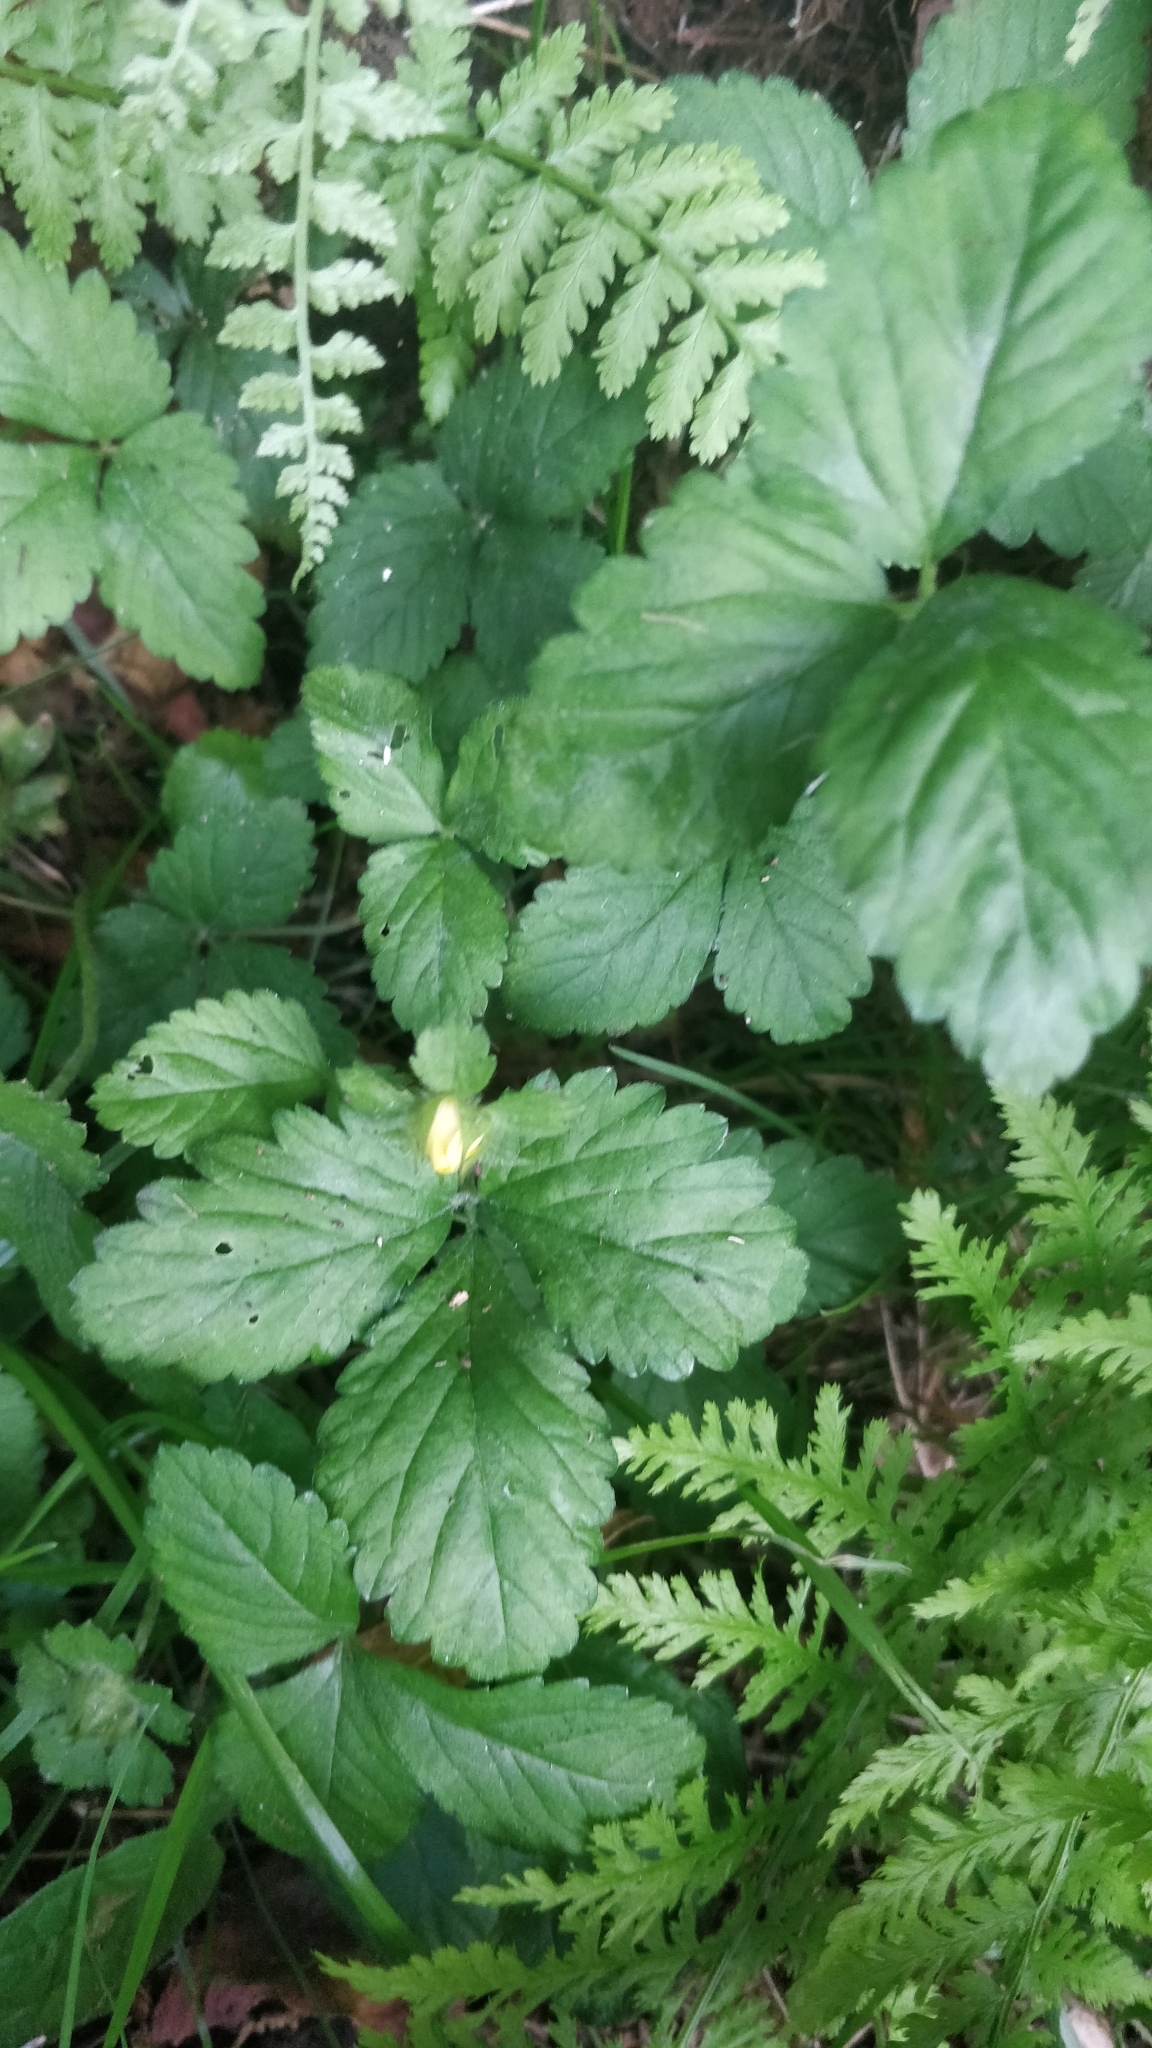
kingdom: Plantae
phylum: Tracheophyta
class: Magnoliopsida
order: Rosales
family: Rosaceae
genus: Potentilla
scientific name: Potentilla indica
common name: Yellow-flowered strawberry
